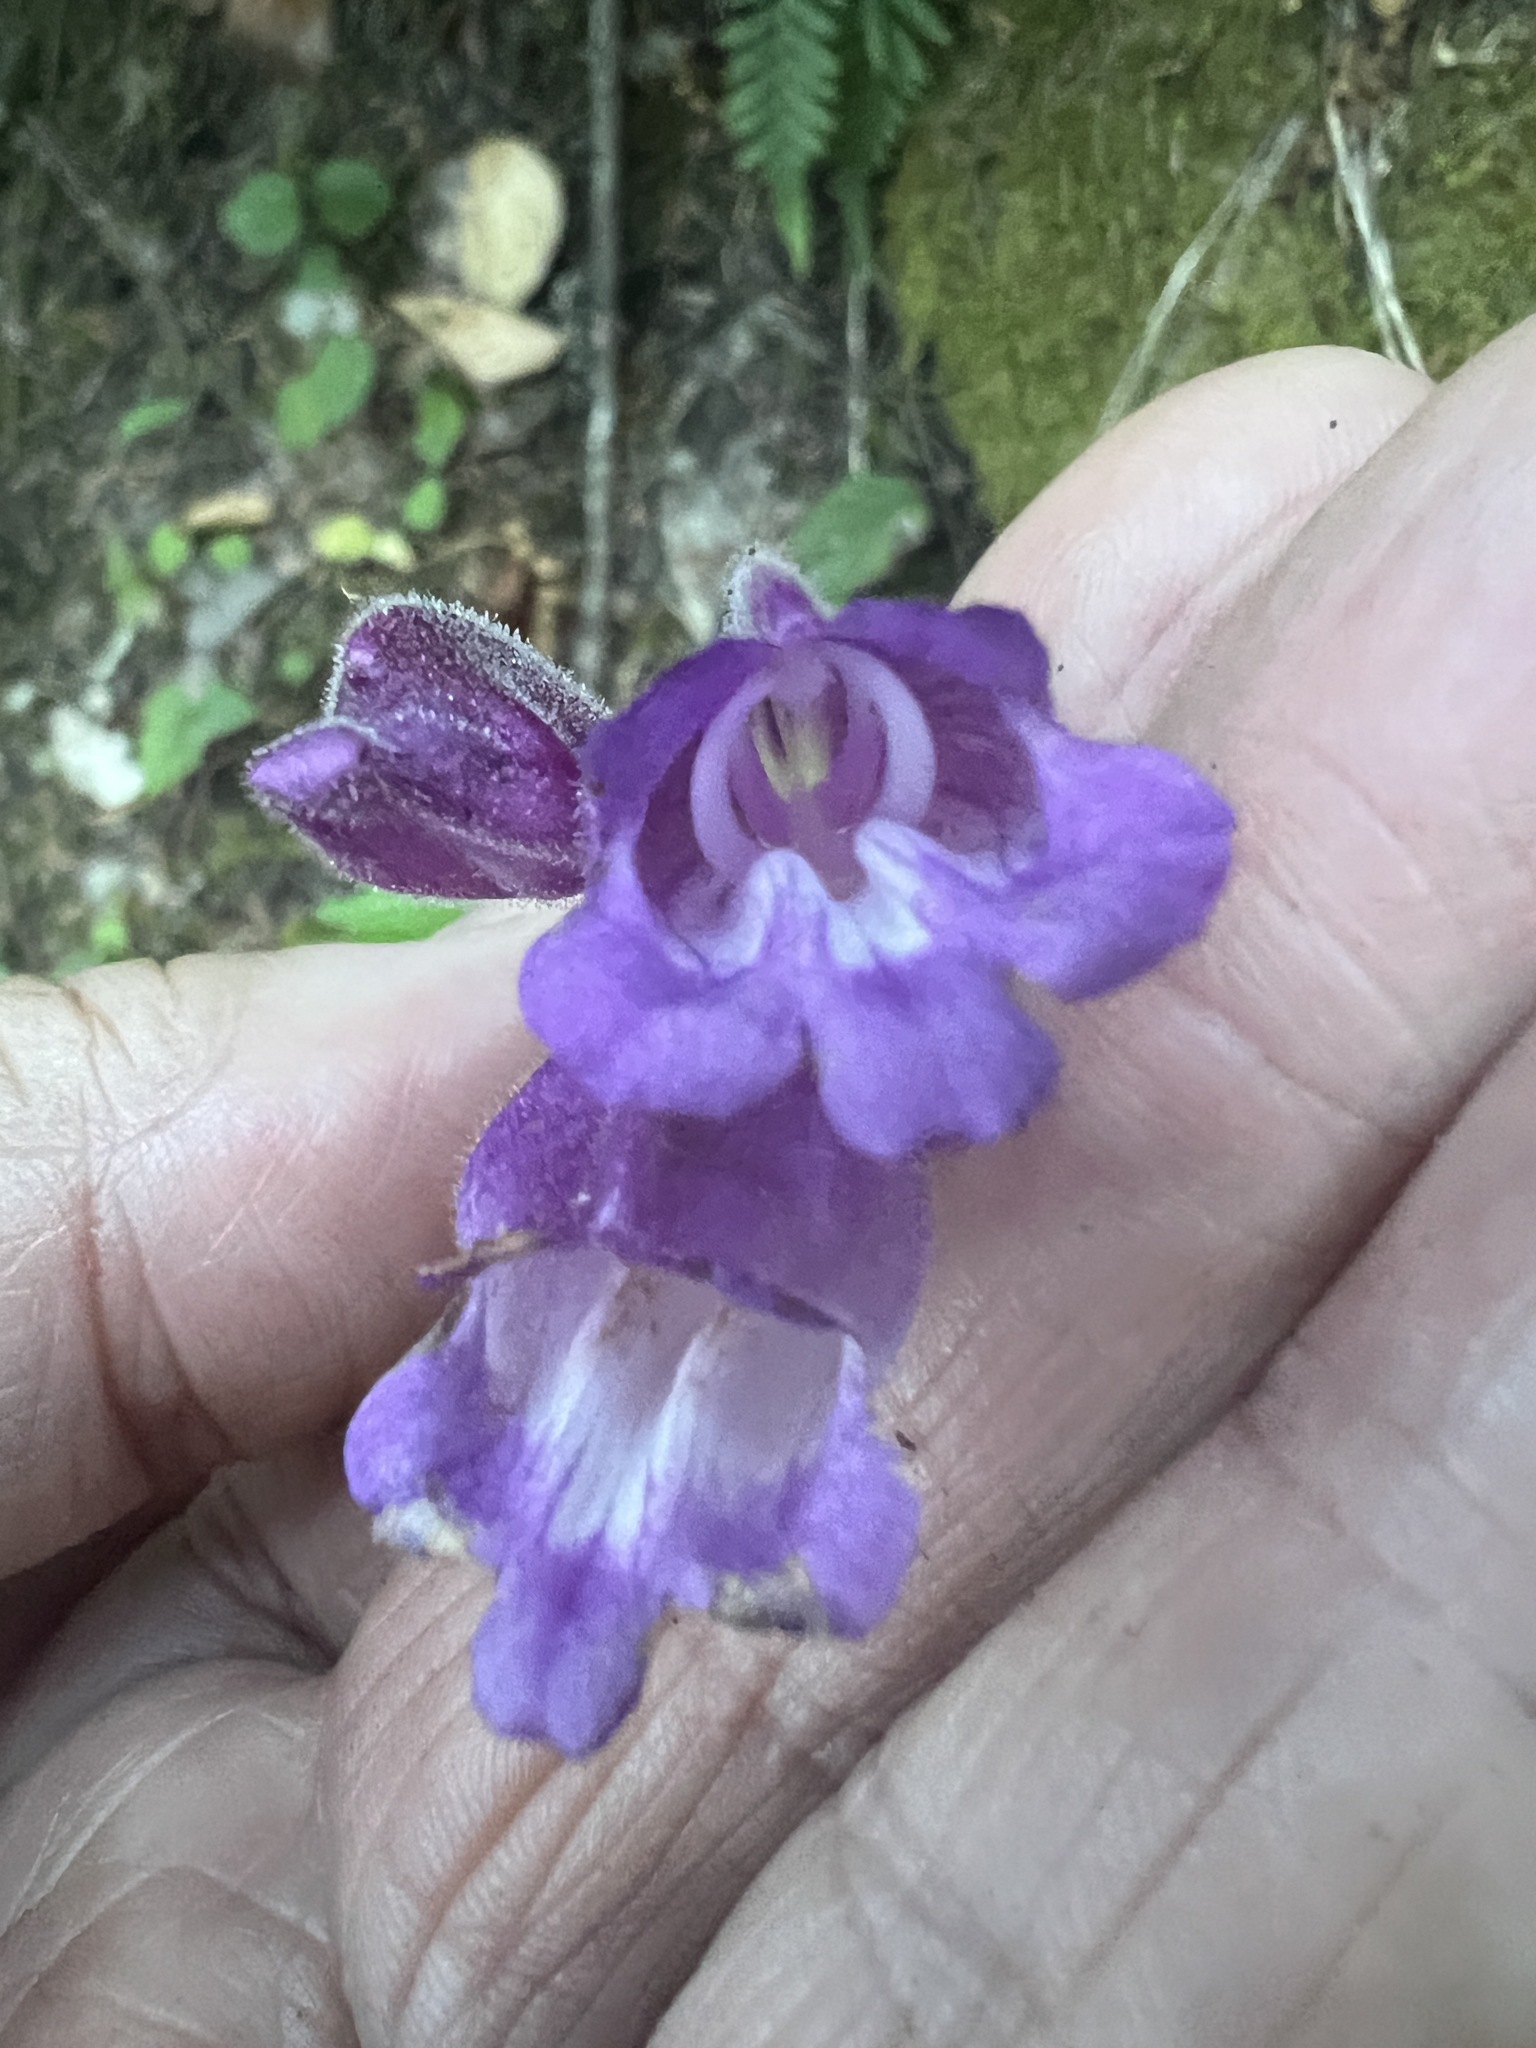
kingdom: Plantae
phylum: Tracheophyta
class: Magnoliopsida
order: Lamiales
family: Plantaginaceae
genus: Nothochelone
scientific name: Nothochelone nemorosa
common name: Woodland beardtongue
